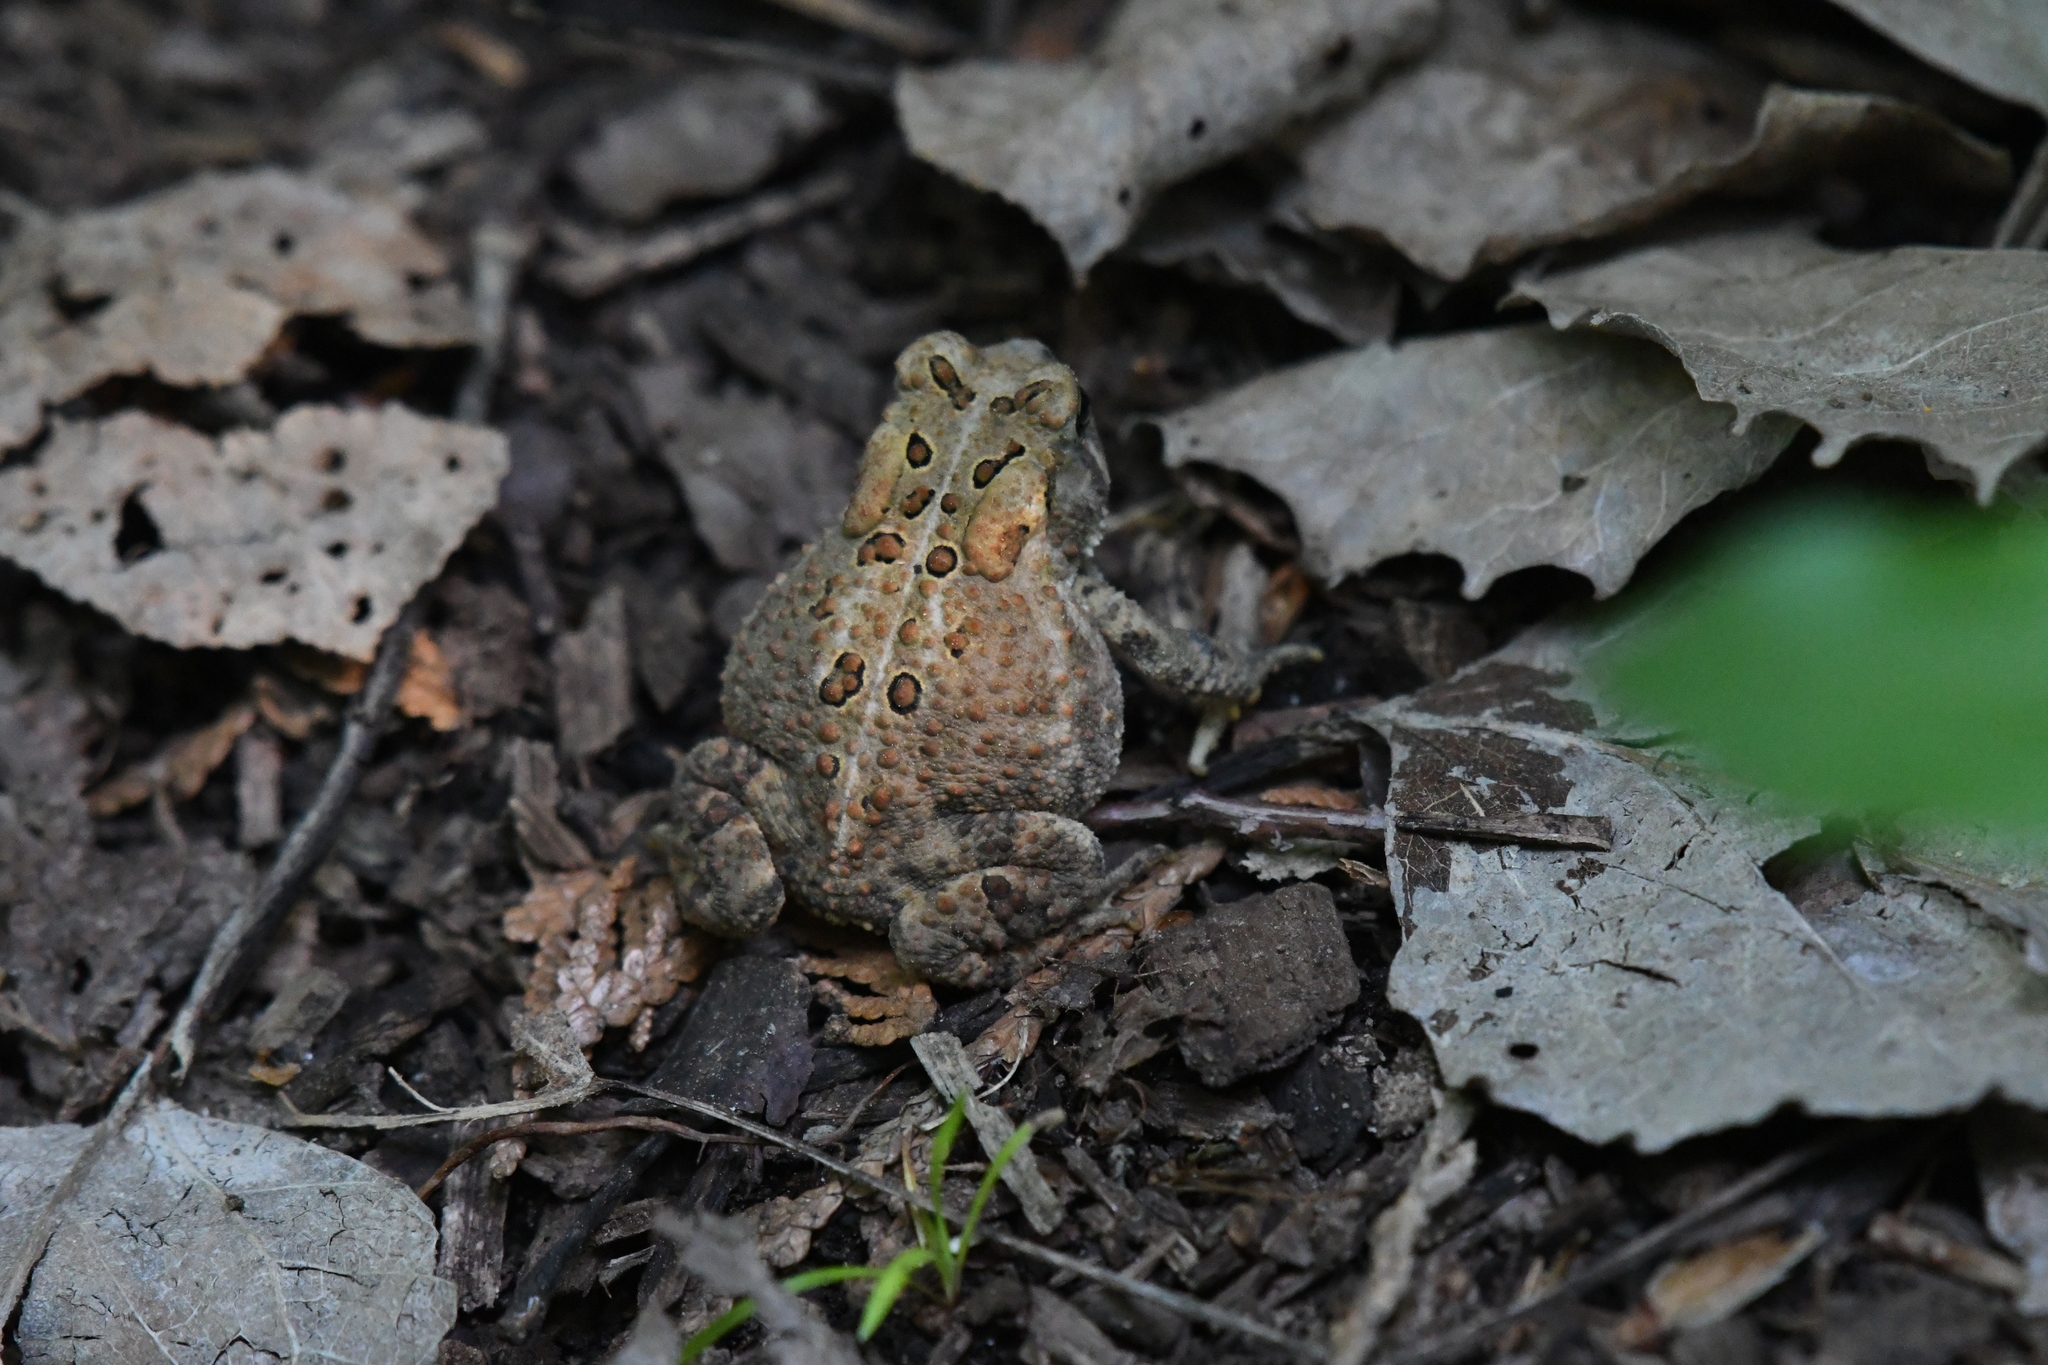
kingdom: Animalia
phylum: Chordata
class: Amphibia
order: Anura
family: Bufonidae
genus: Anaxyrus
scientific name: Anaxyrus americanus
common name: American toad
